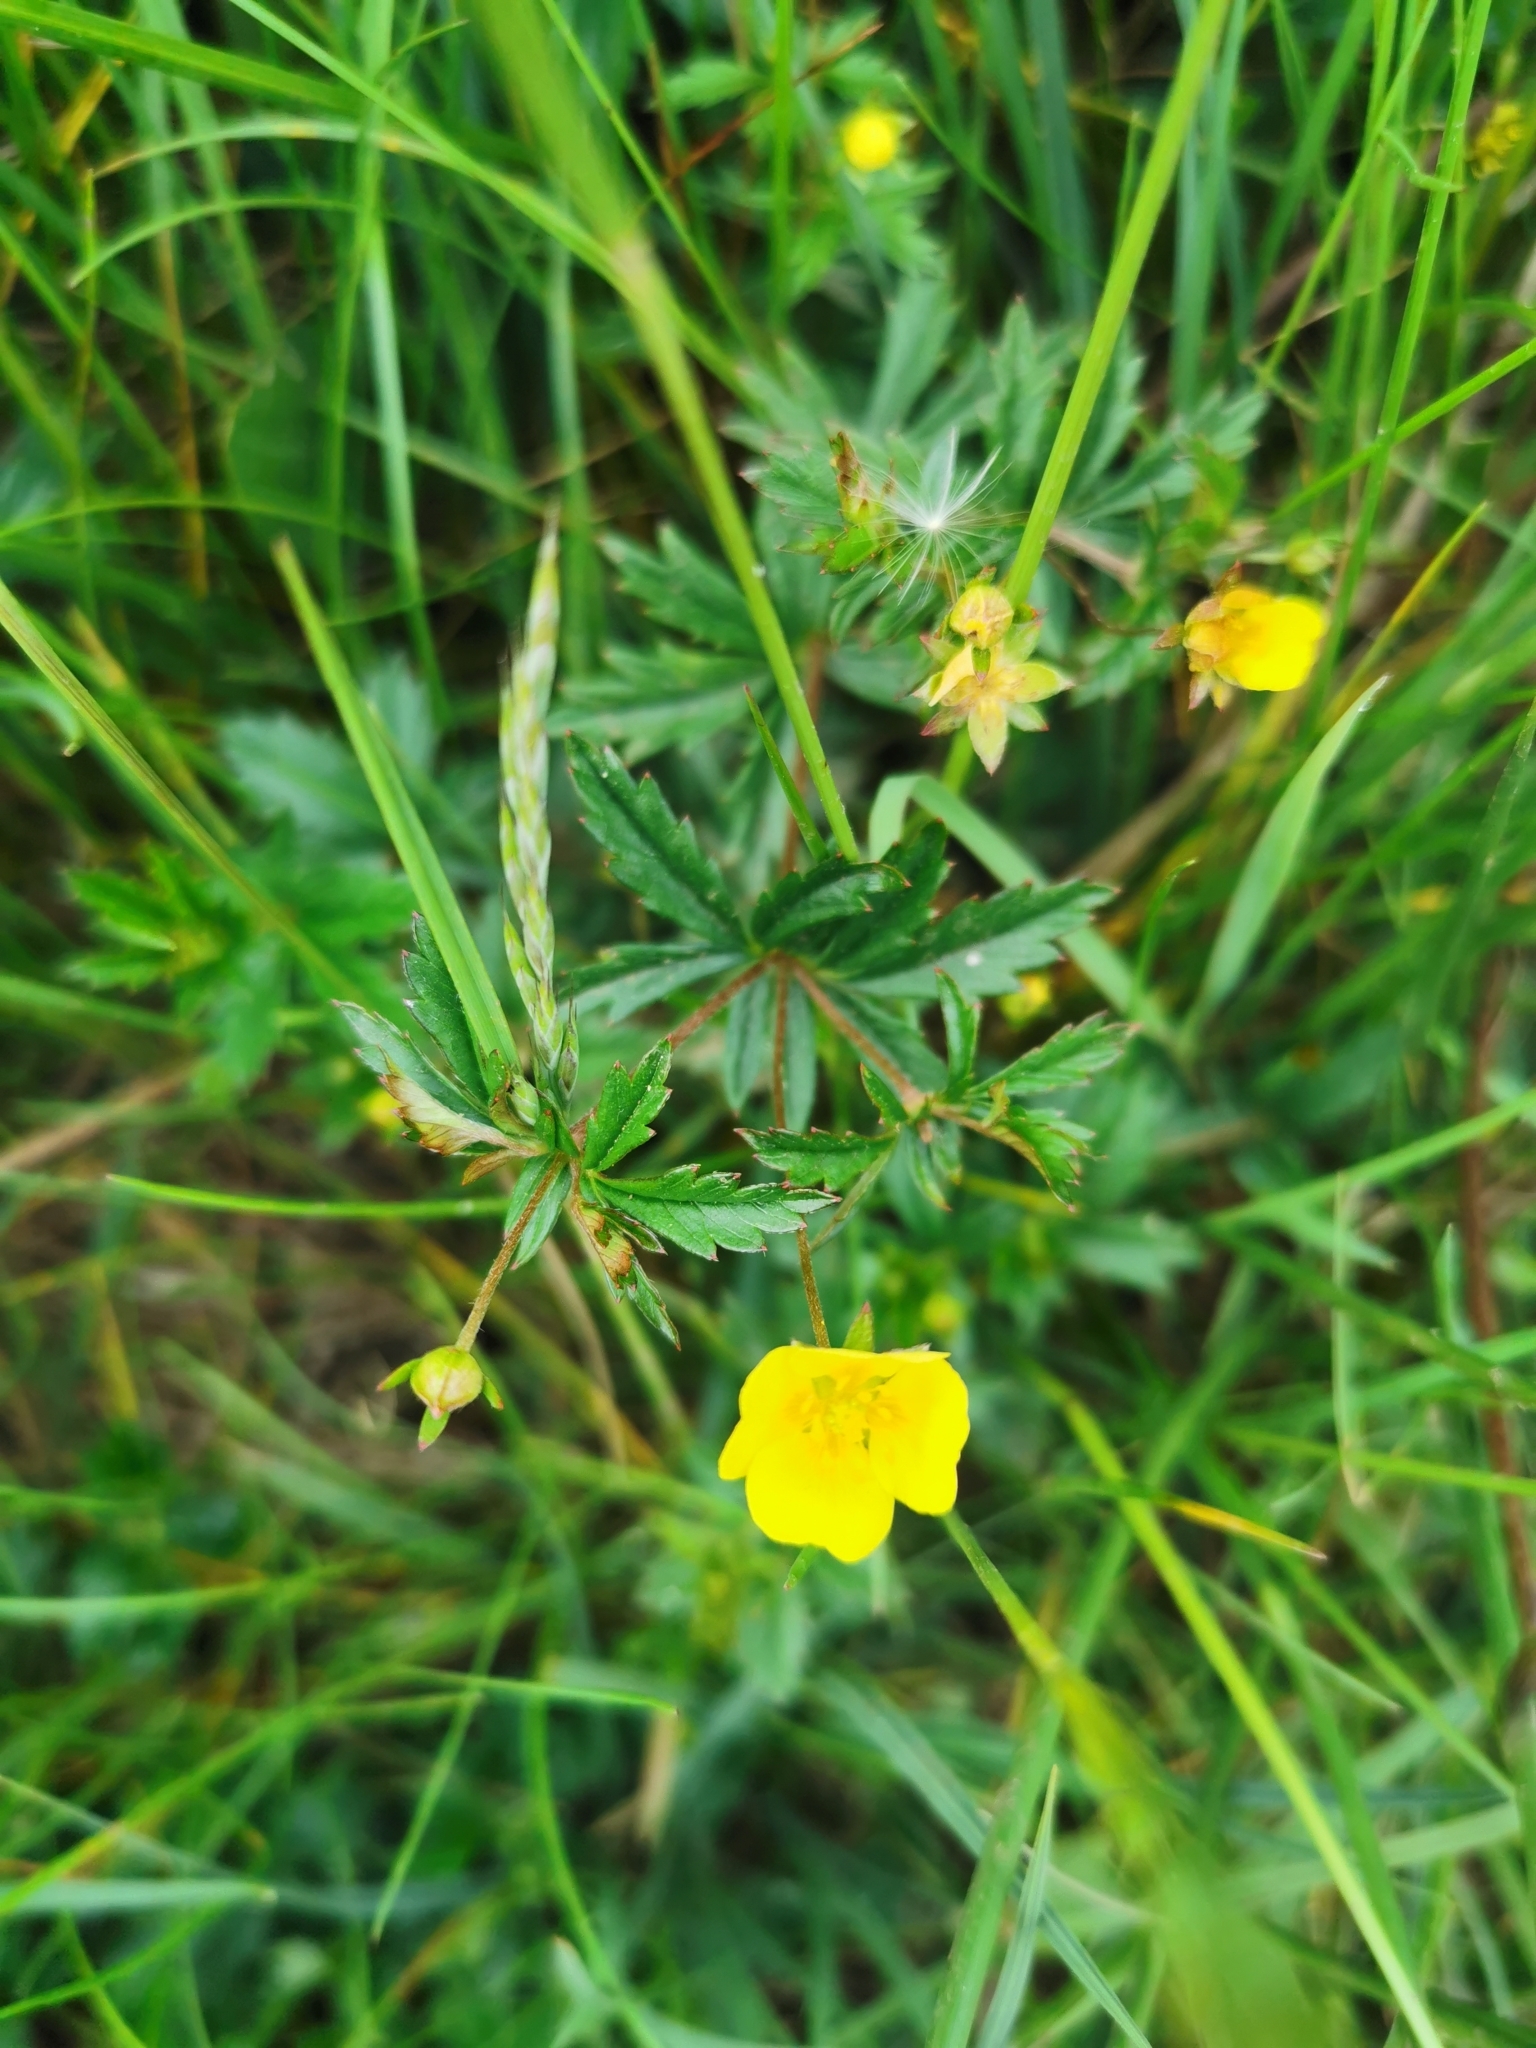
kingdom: Plantae
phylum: Tracheophyta
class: Magnoliopsida
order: Rosales
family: Rosaceae
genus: Potentilla
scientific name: Potentilla erecta
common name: Tormentil
